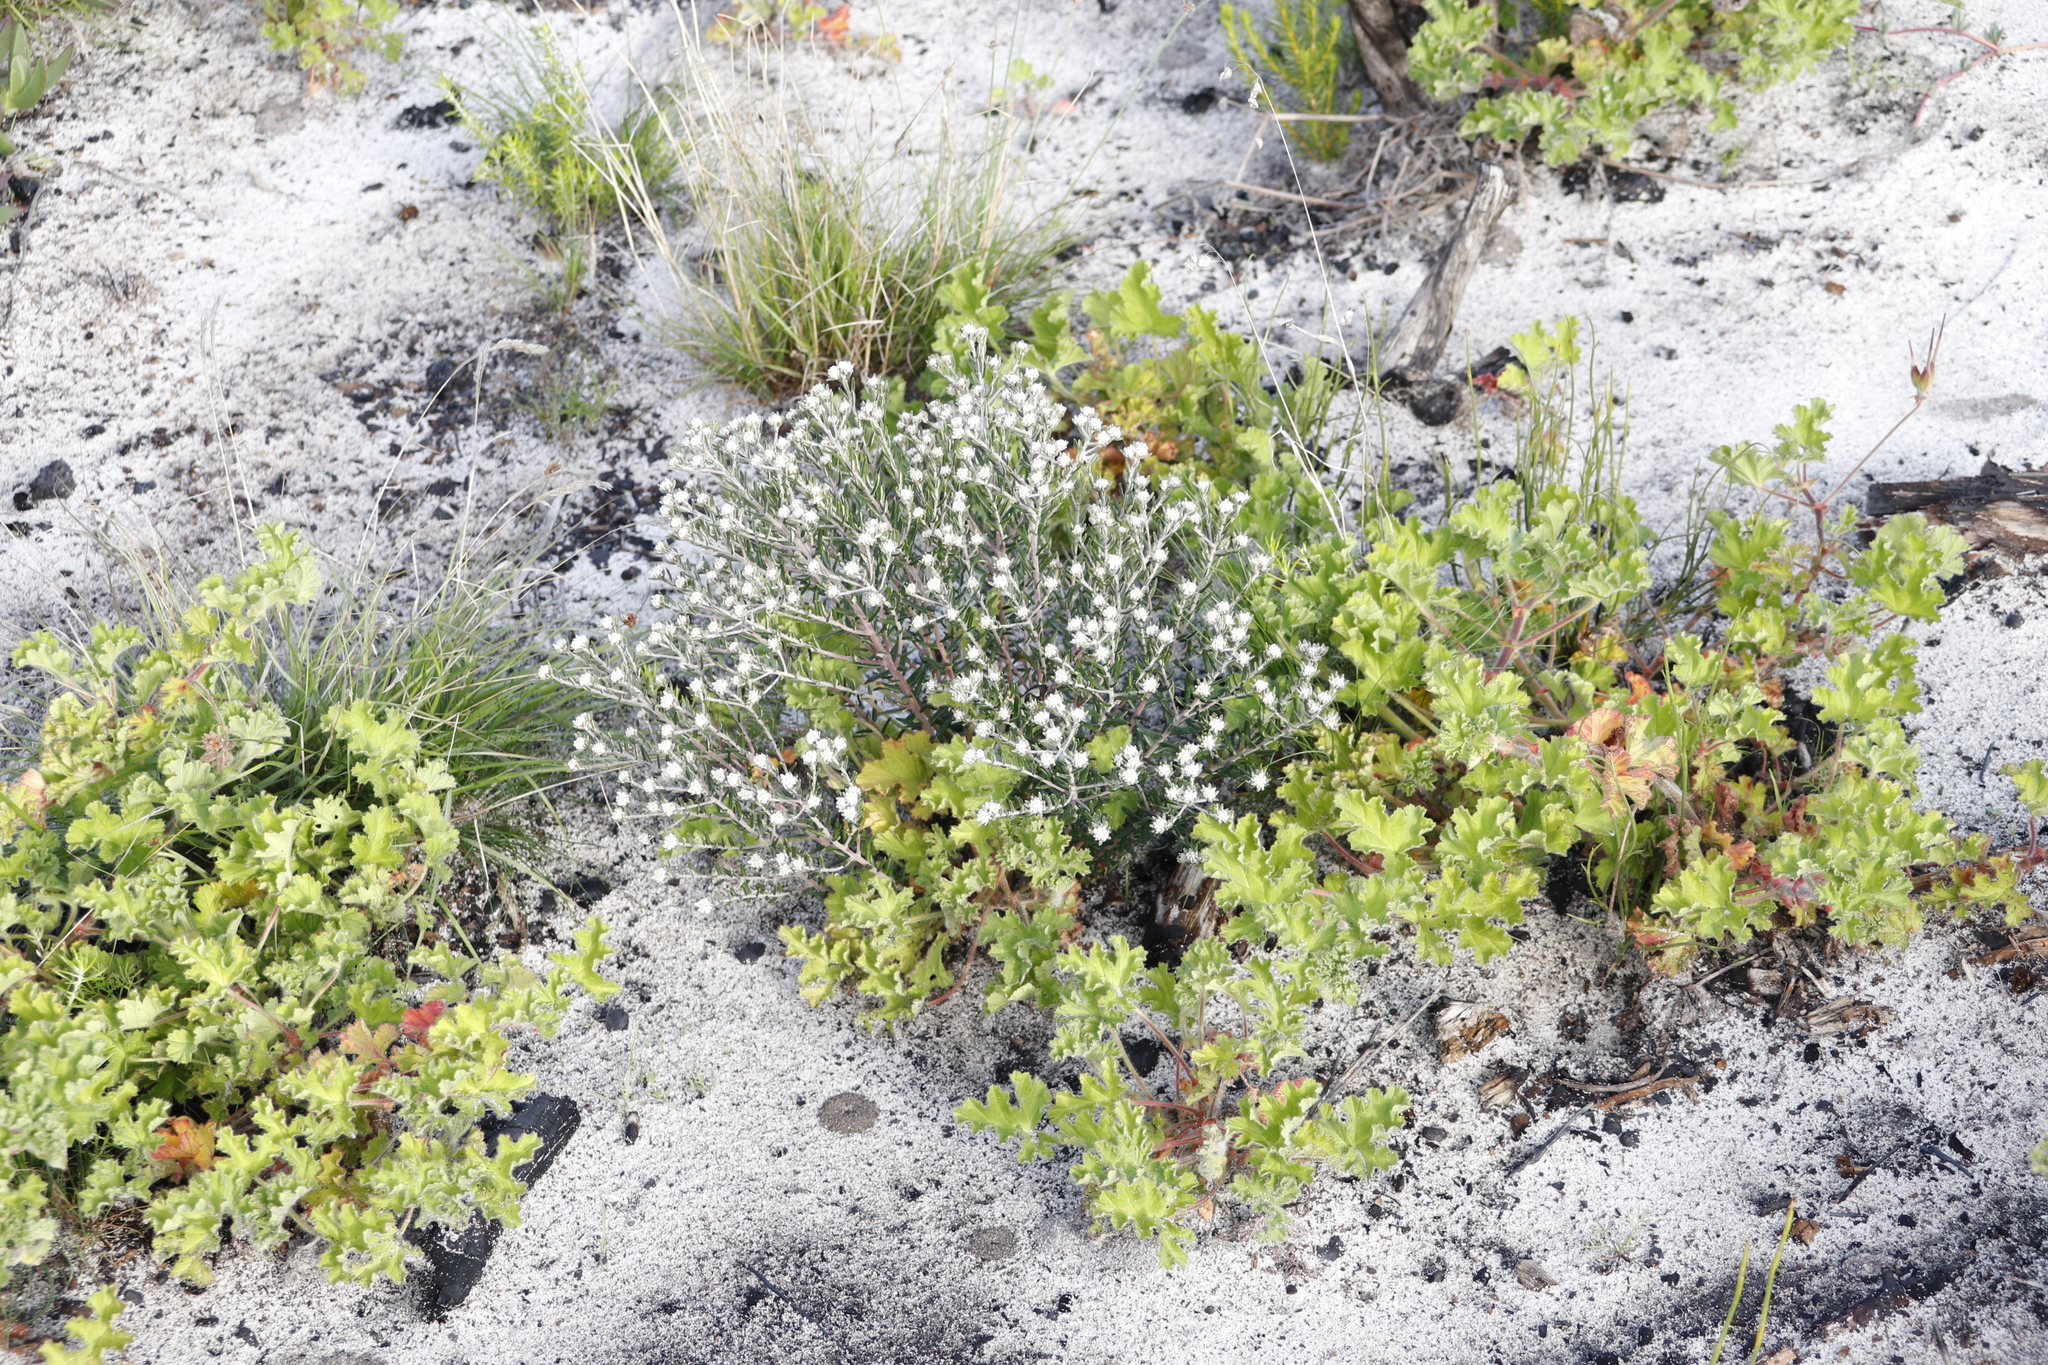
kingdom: Plantae
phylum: Tracheophyta
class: Magnoliopsida
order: Rosales
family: Rhamnaceae
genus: Trichocephalus
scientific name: Trichocephalus stipularis
